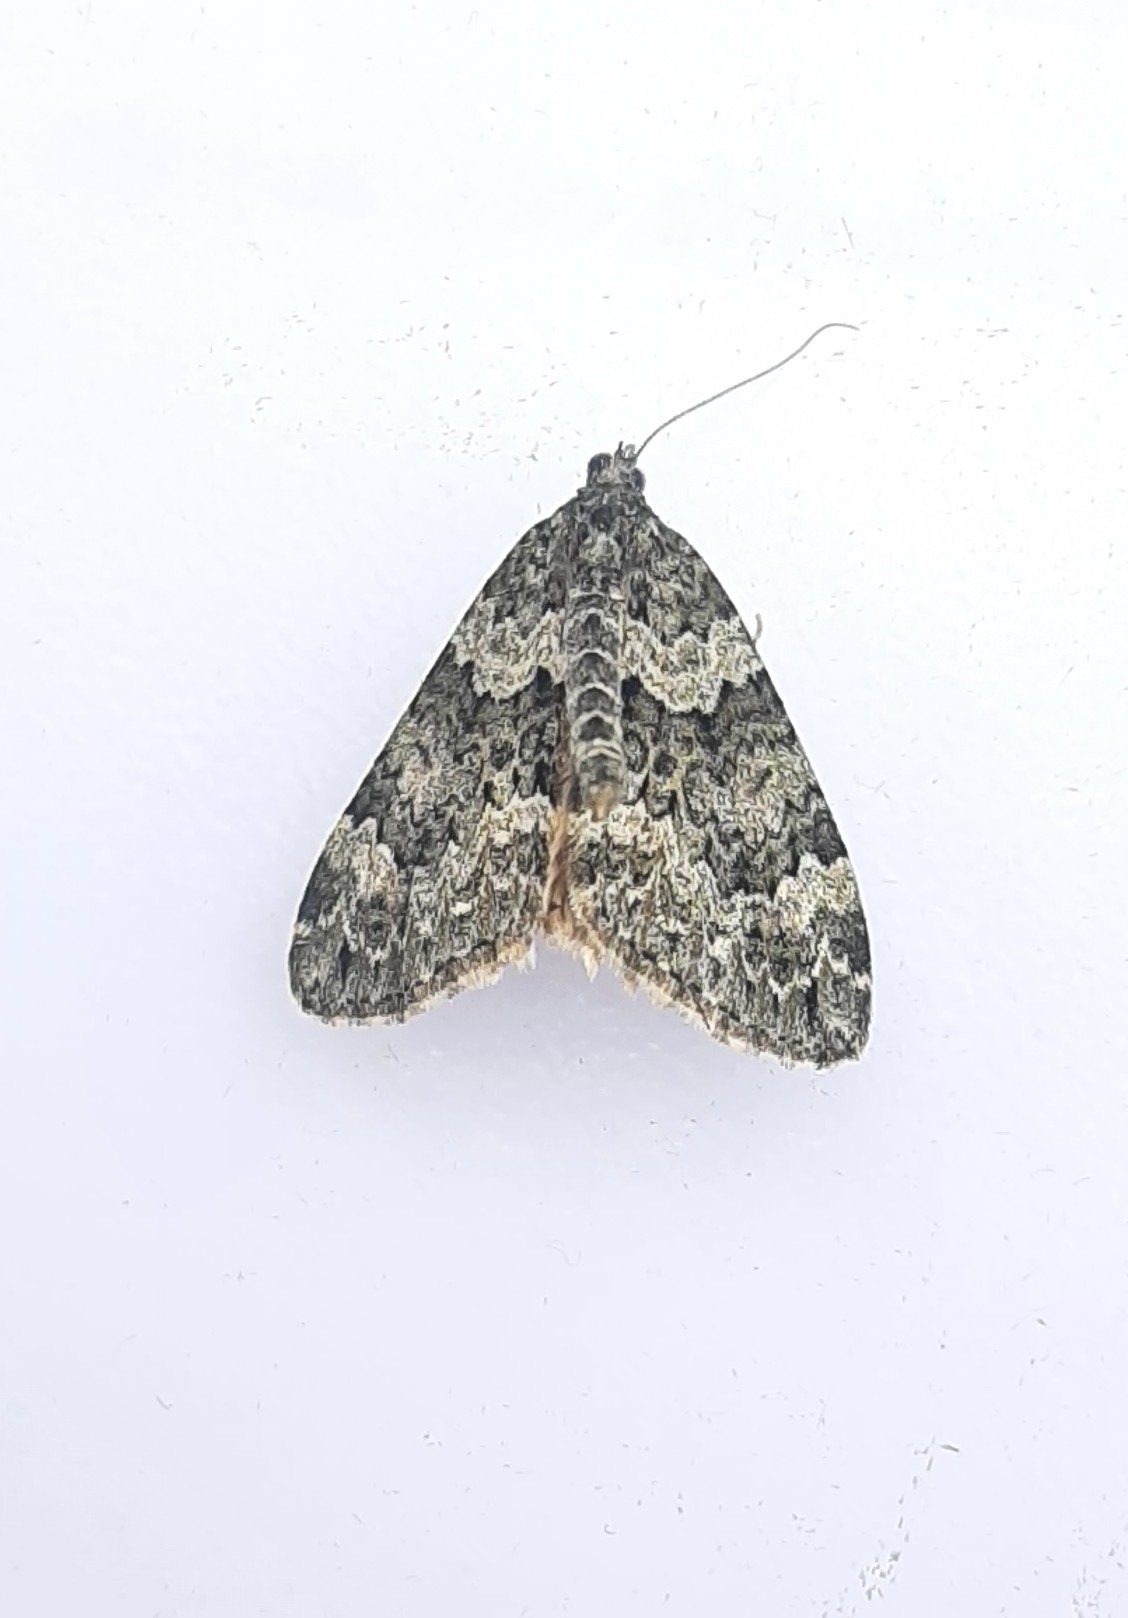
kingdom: Animalia
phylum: Arthropoda
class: Insecta
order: Lepidoptera
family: Geometridae
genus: Chloroclysta
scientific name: Chloroclysta miata
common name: Autumn green carpet
